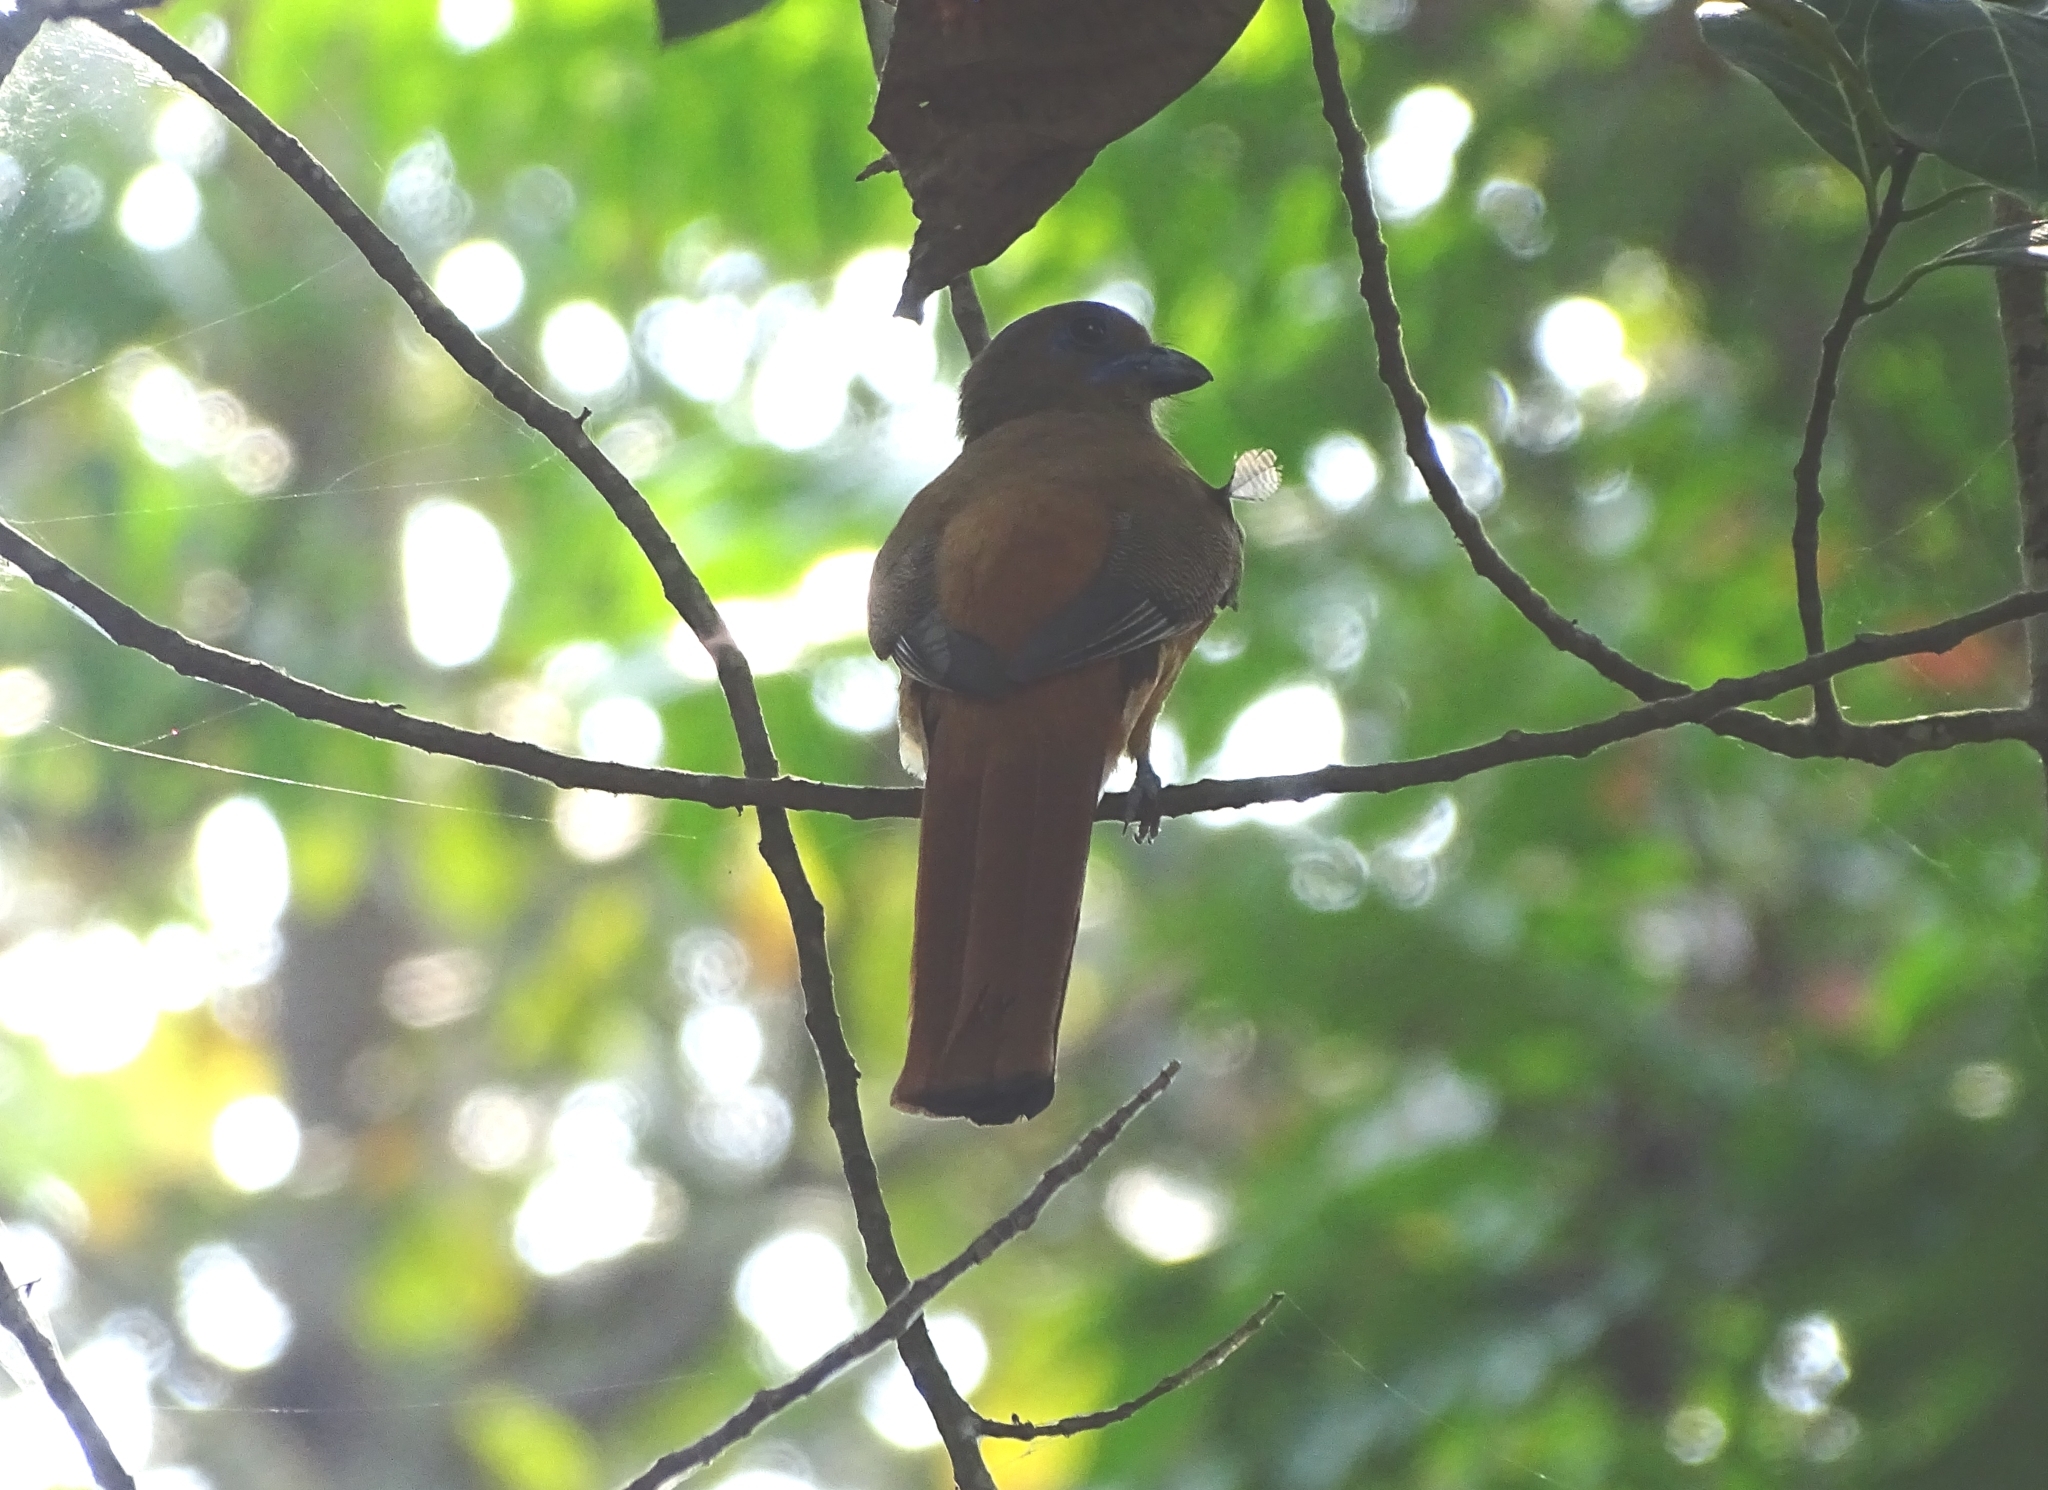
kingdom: Animalia
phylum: Chordata
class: Aves
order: Trogoniformes
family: Trogonidae
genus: Harpactes
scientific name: Harpactes fasciatus
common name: Malabar trogon
